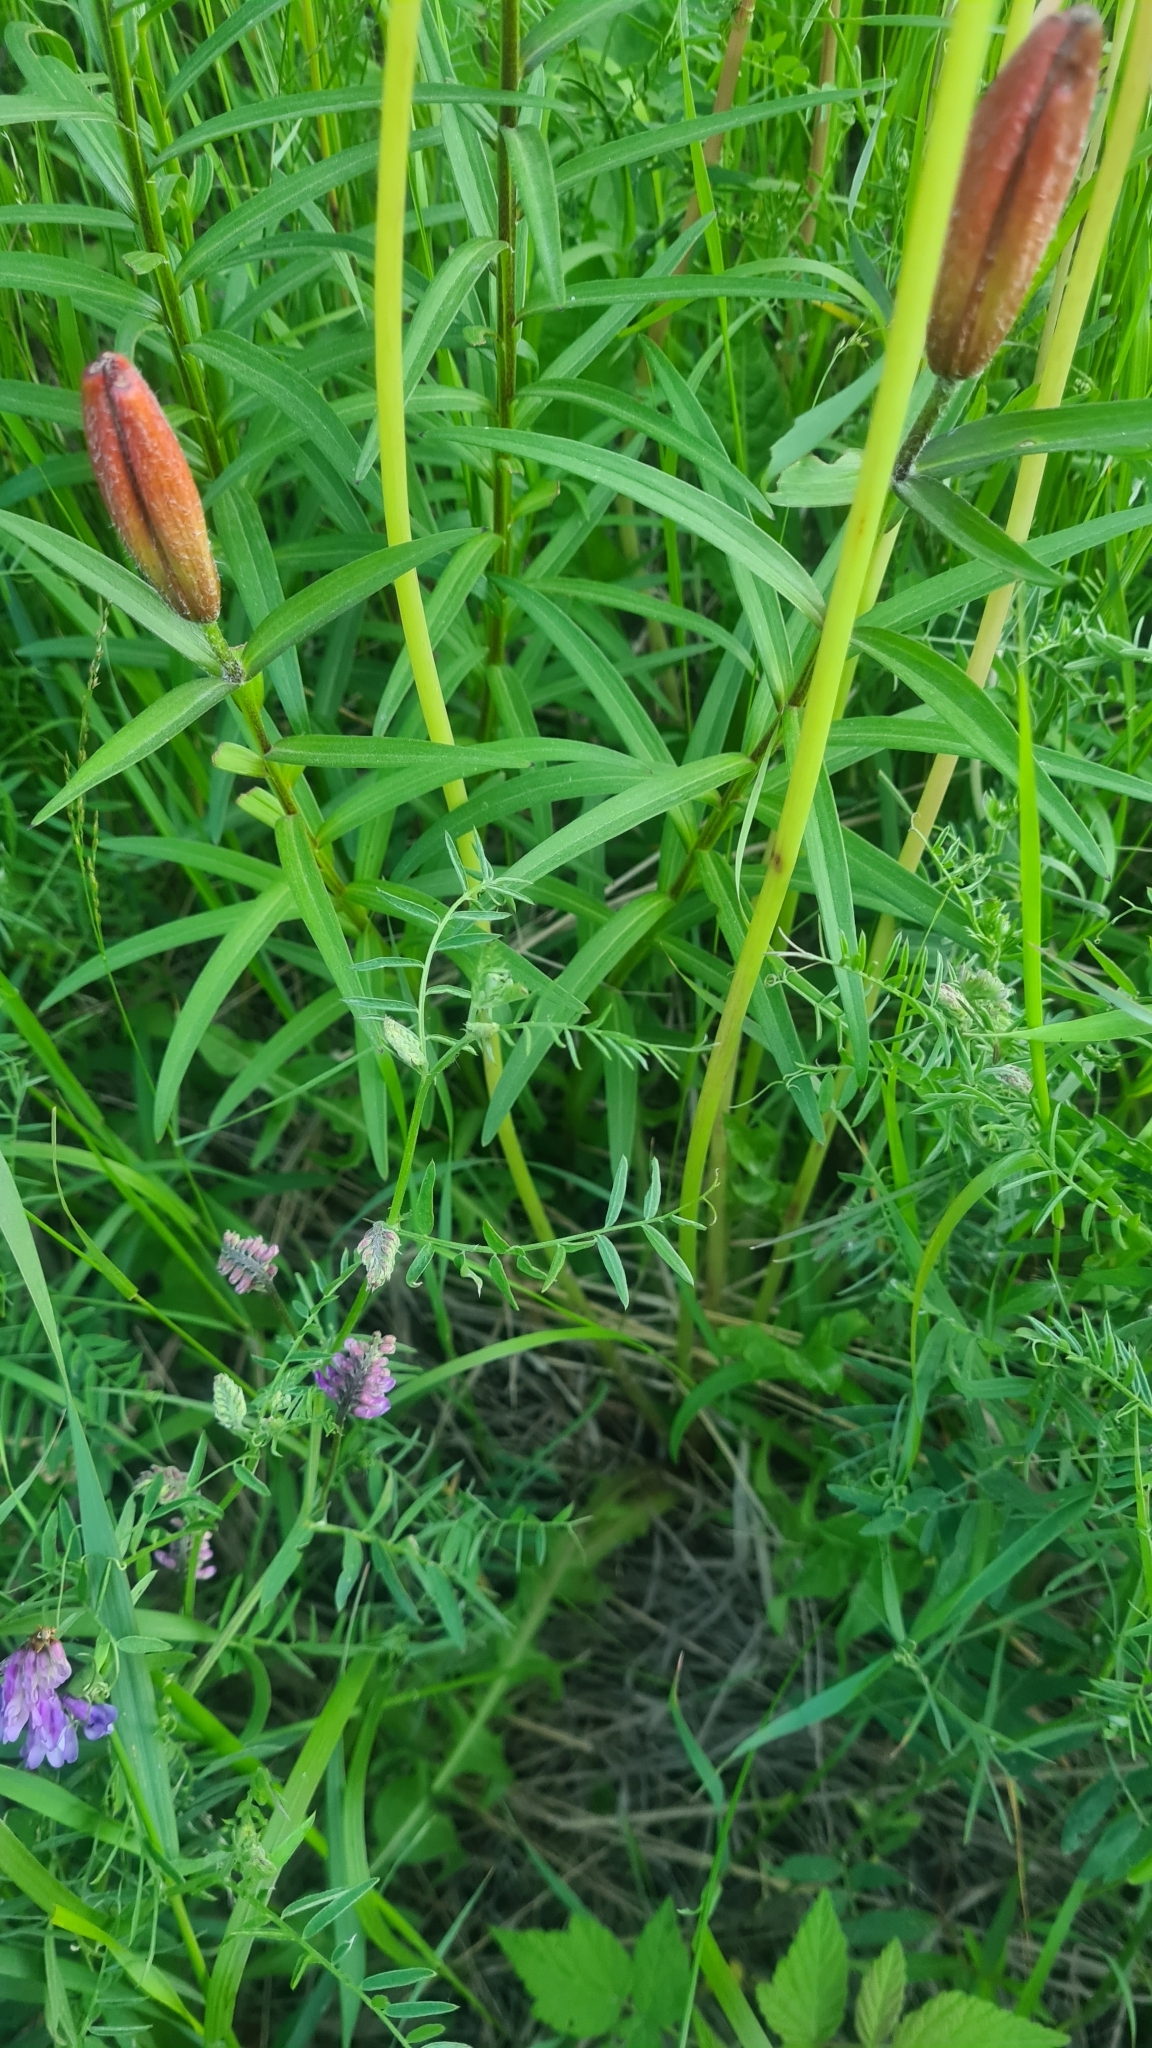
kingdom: Plantae
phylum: Tracheophyta
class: Liliopsida
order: Liliales
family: Liliaceae
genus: Lilium
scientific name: Lilium pensylvanicum
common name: Candlestick lily
